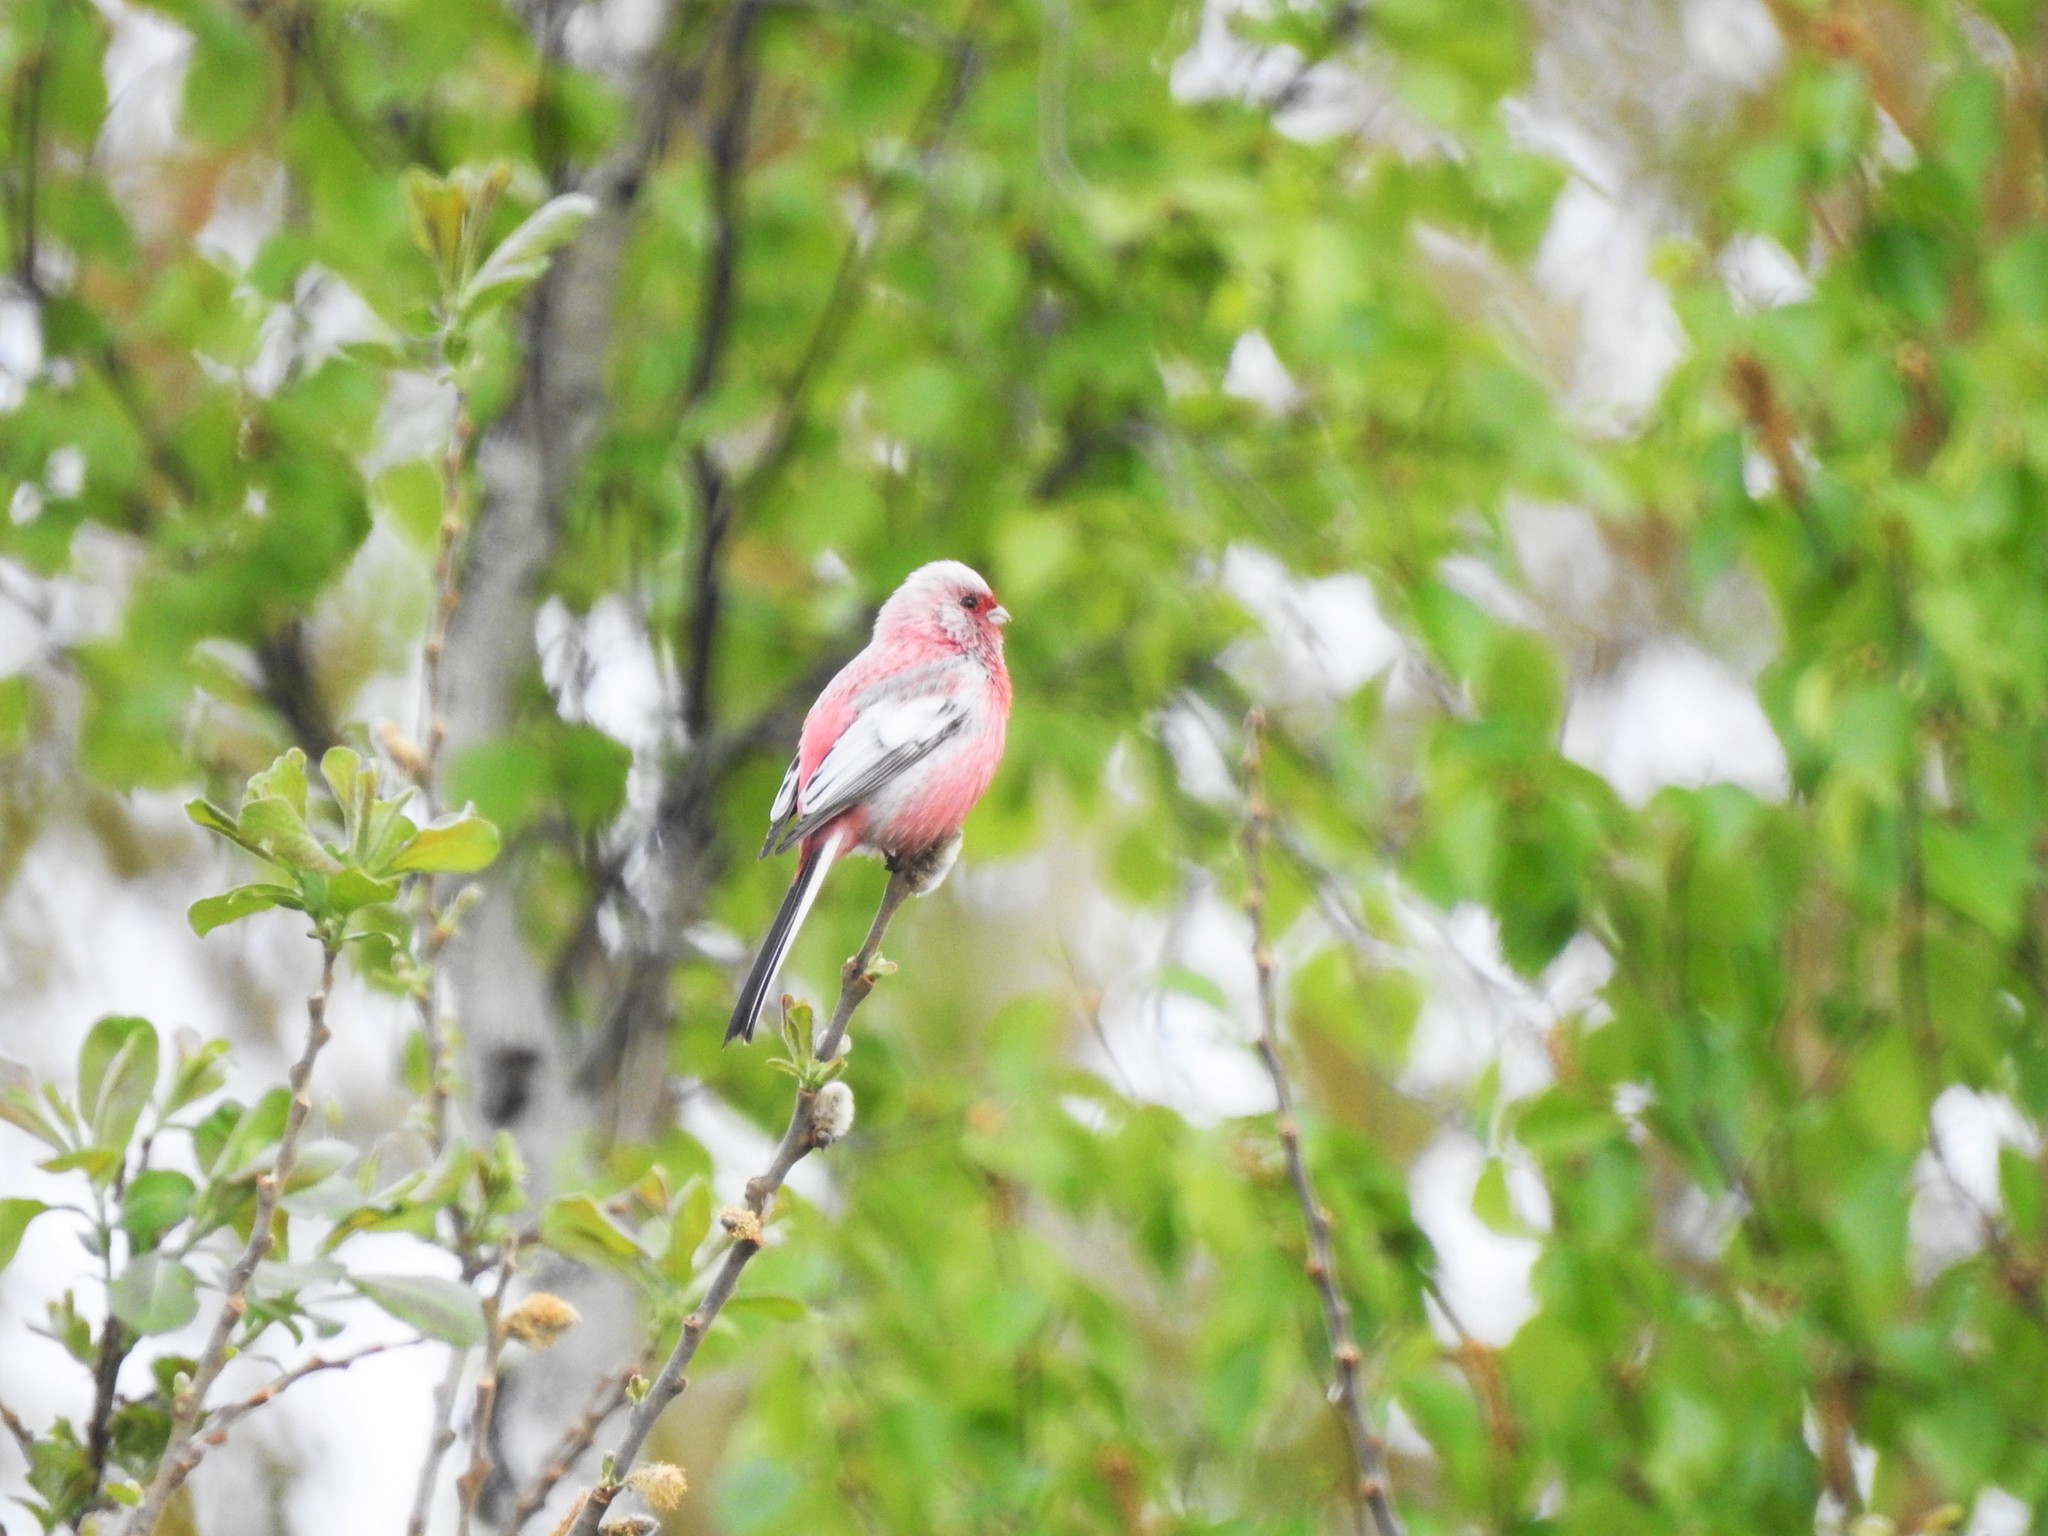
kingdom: Animalia
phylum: Chordata
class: Aves
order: Passeriformes
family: Fringillidae
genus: Carpodacus
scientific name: Carpodacus sibiricus
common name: Long-tailed rosefinch
